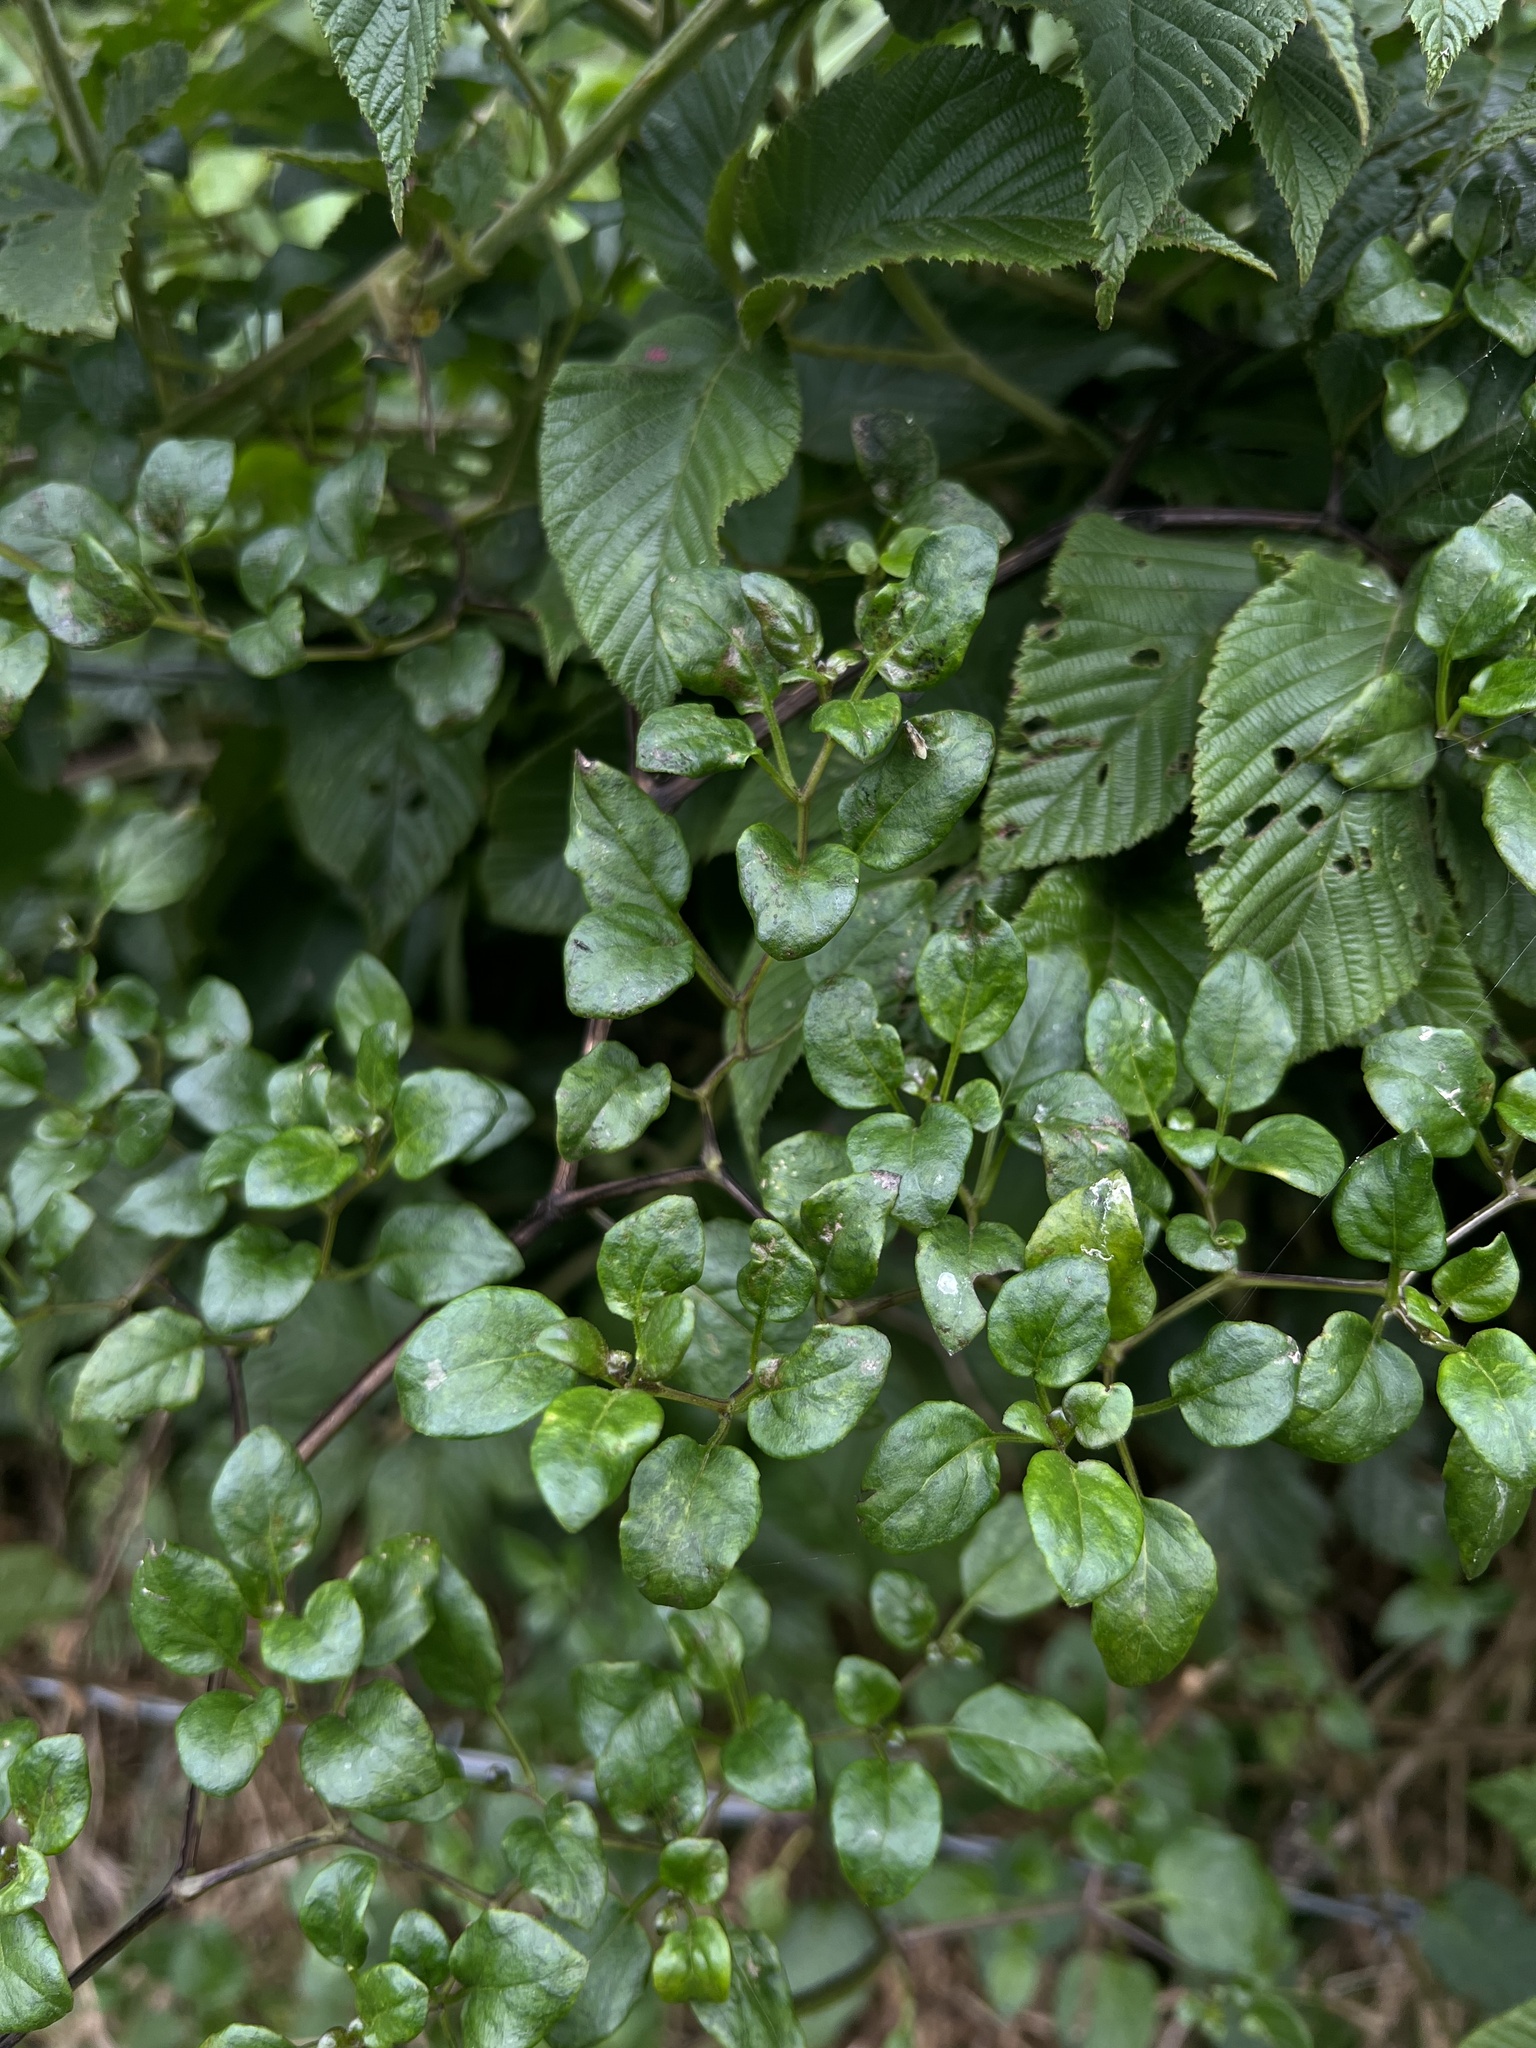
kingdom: Plantae
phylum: Tracheophyta
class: Magnoliopsida
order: Solanales
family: Solanaceae
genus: Salpichroa
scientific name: Salpichroa tristis
